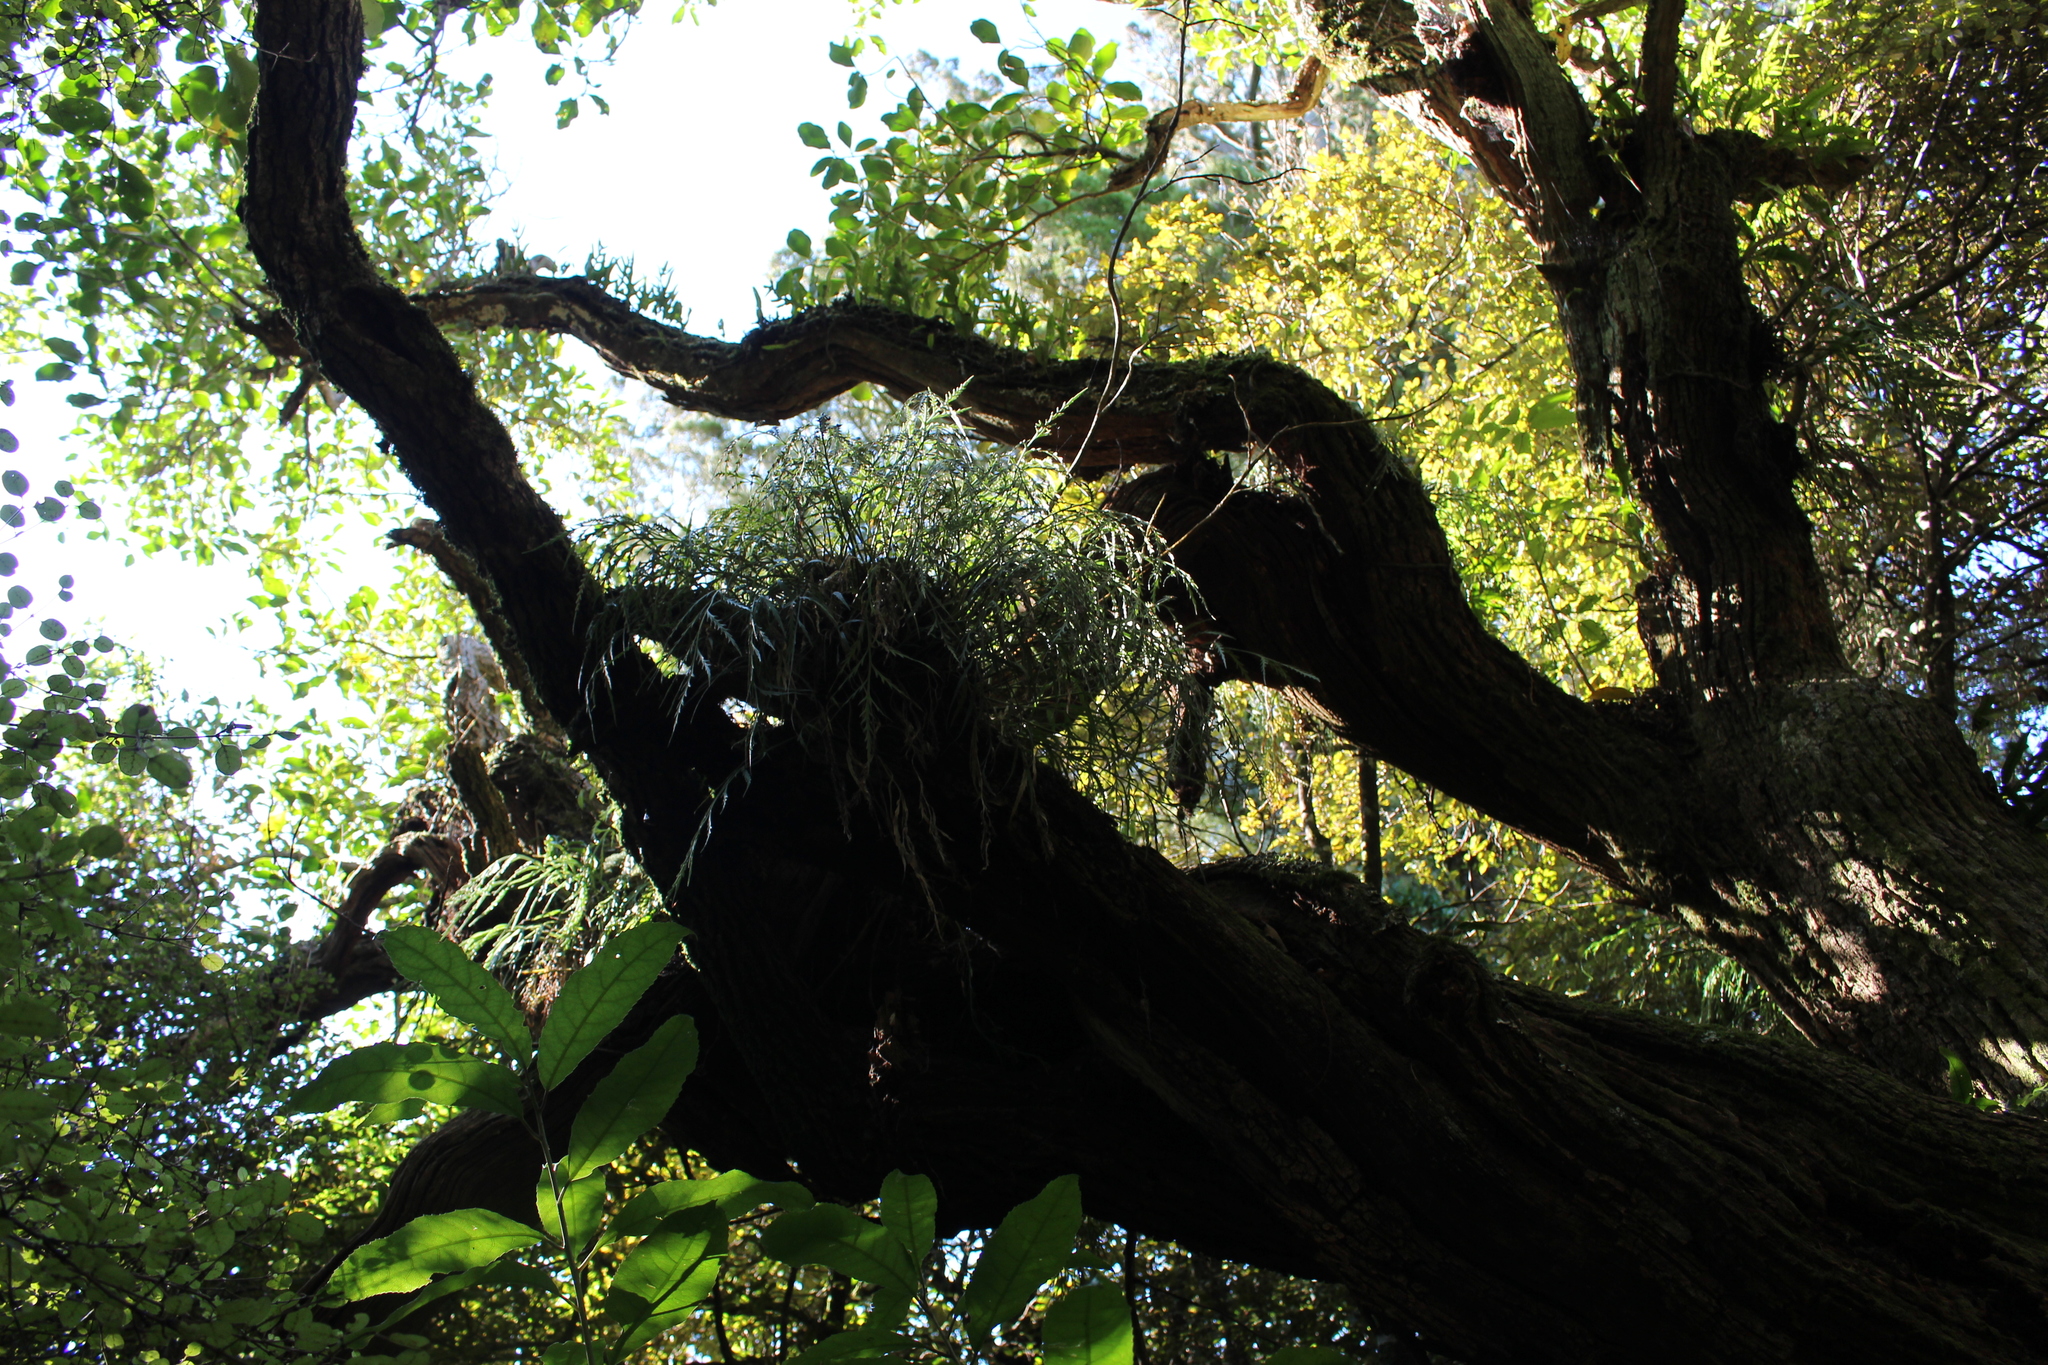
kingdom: Plantae
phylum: Tracheophyta
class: Polypodiopsida
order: Polypodiales
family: Aspleniaceae
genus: Asplenium
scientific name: Asplenium flaccidum
